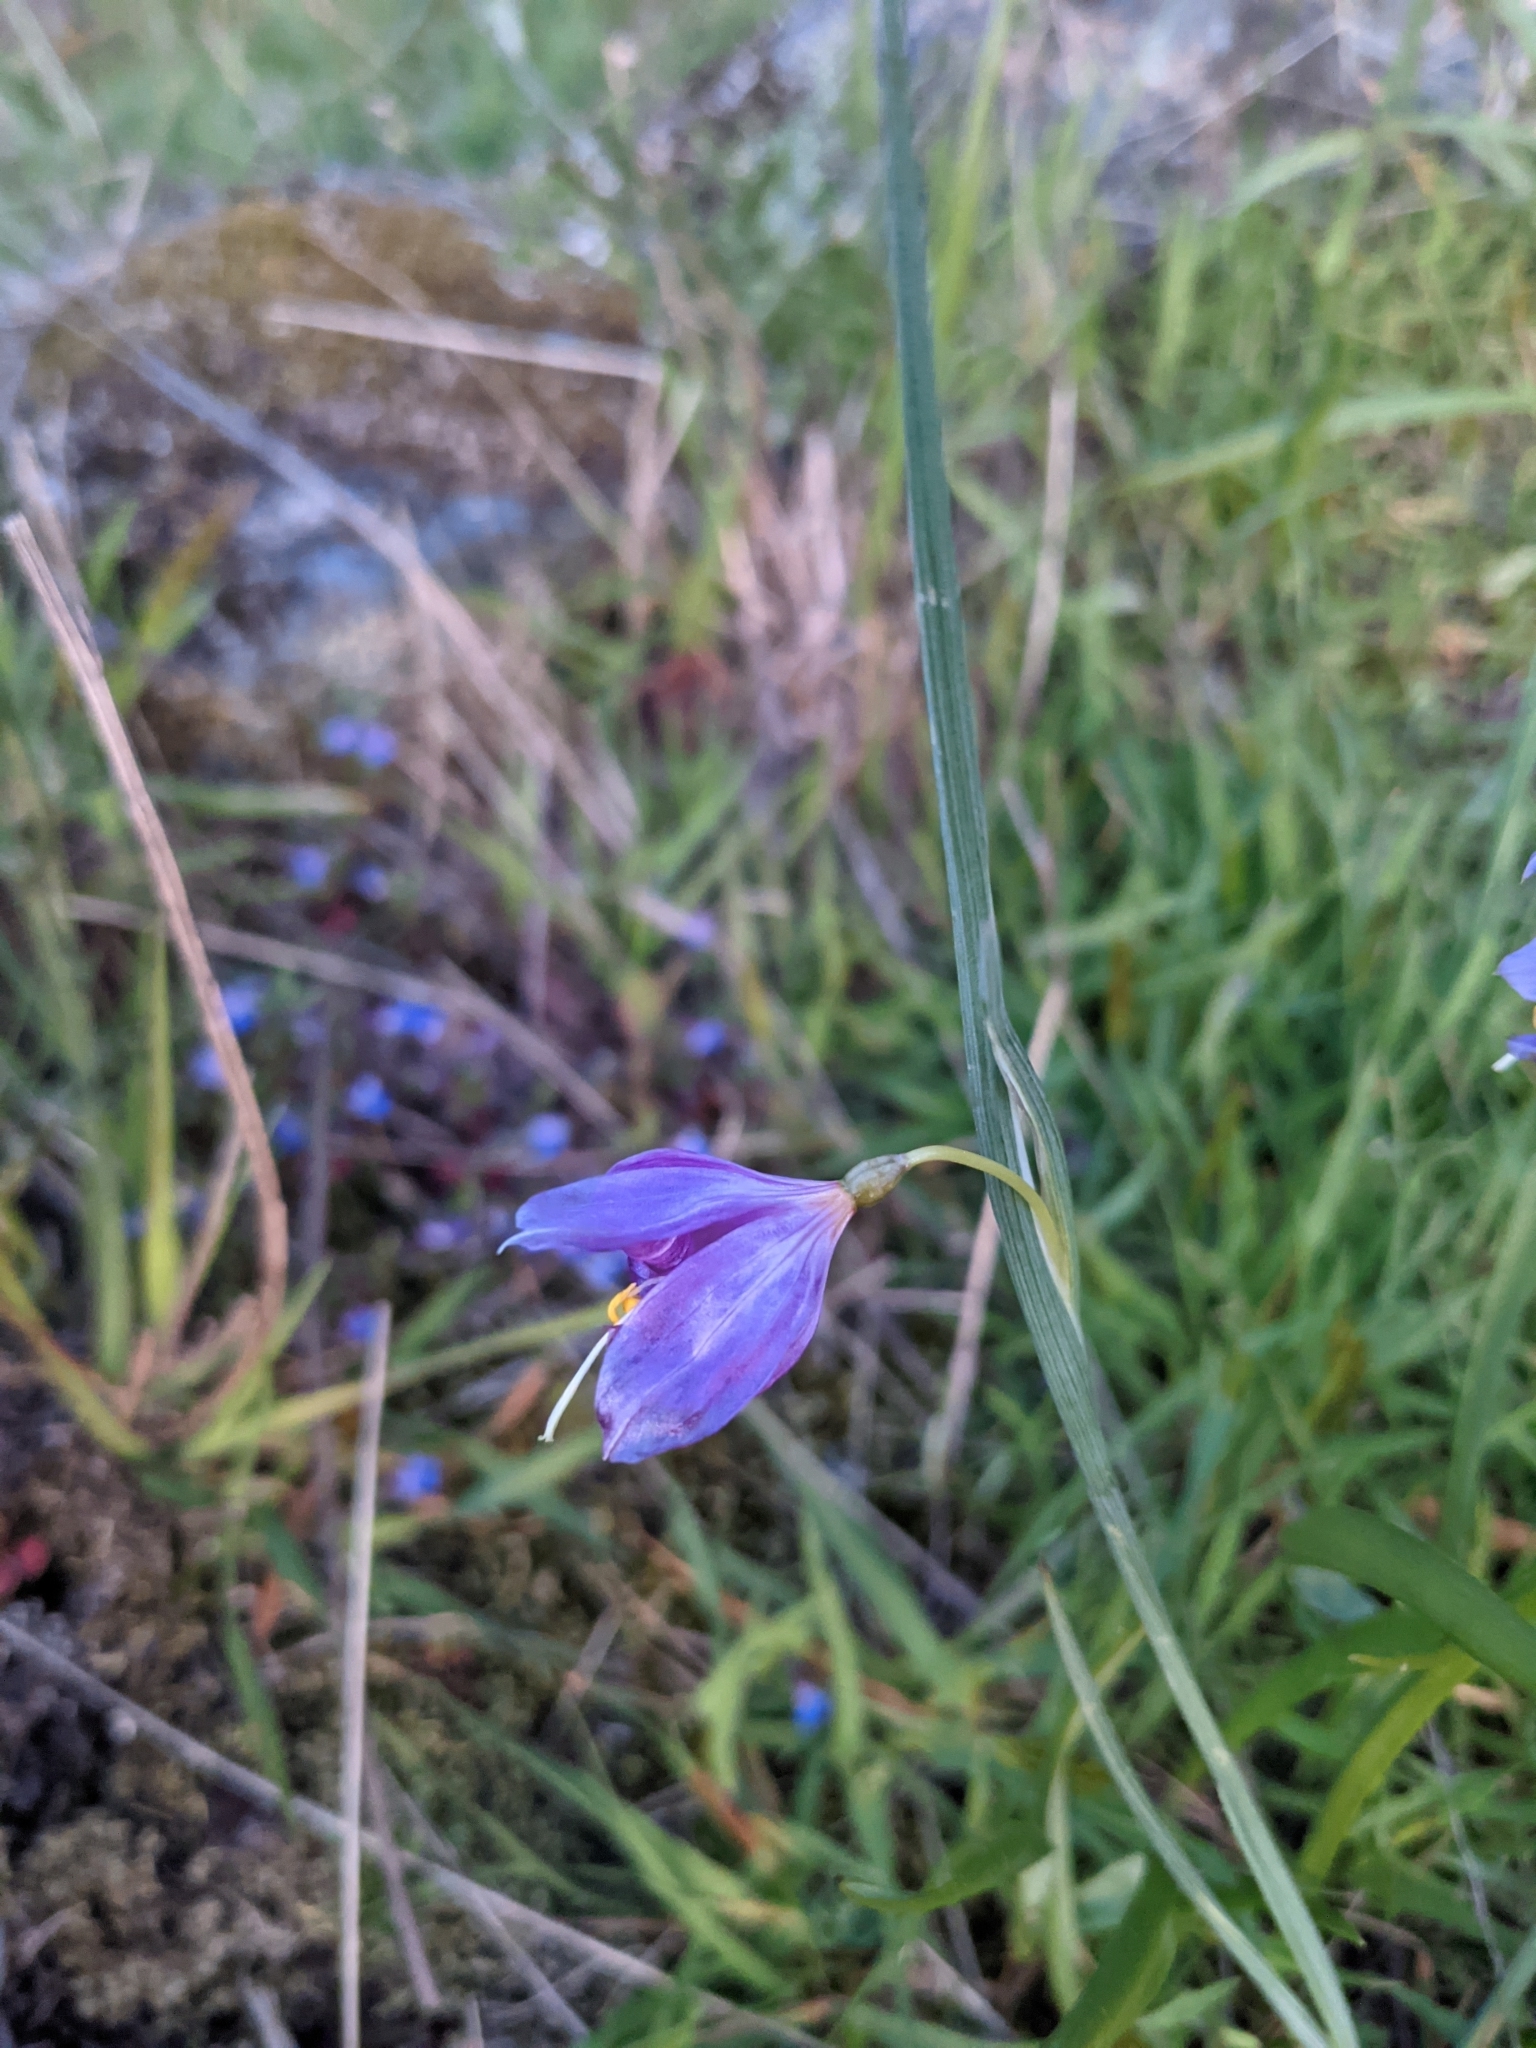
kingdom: Plantae
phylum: Tracheophyta
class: Liliopsida
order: Asparagales
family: Iridaceae
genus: Olsynium
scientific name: Olsynium douglasii
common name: Douglas' grasswidow
